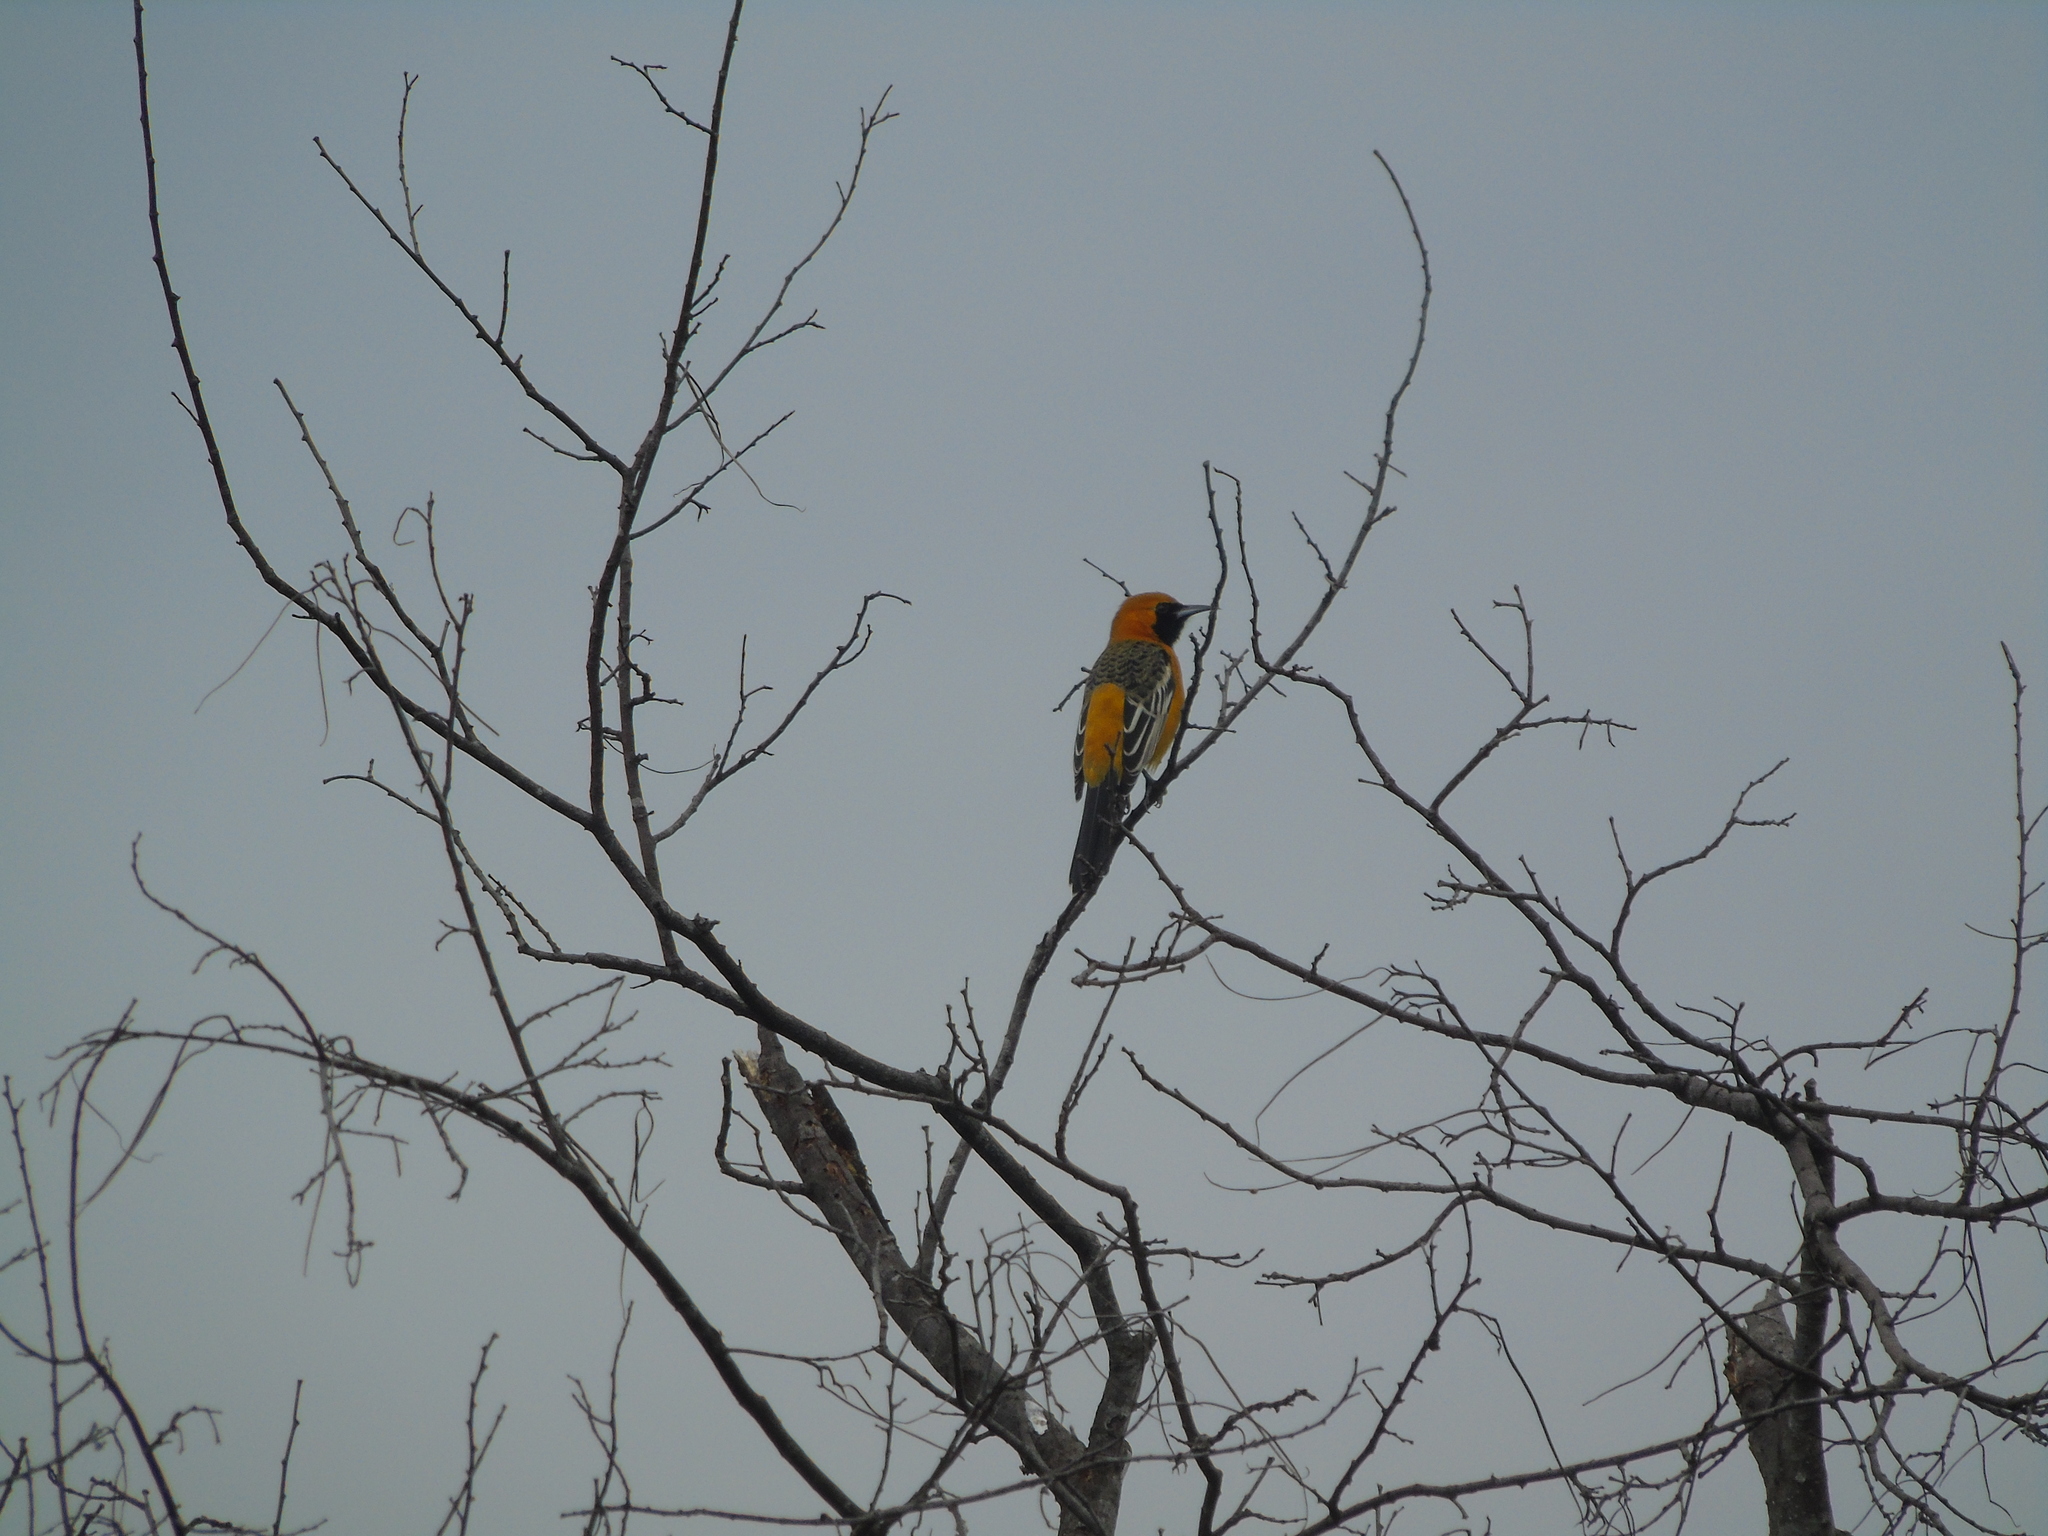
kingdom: Animalia
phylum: Chordata
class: Aves
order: Passeriformes
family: Icteridae
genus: Icterus
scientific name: Icterus cucullatus
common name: Hooded oriole
